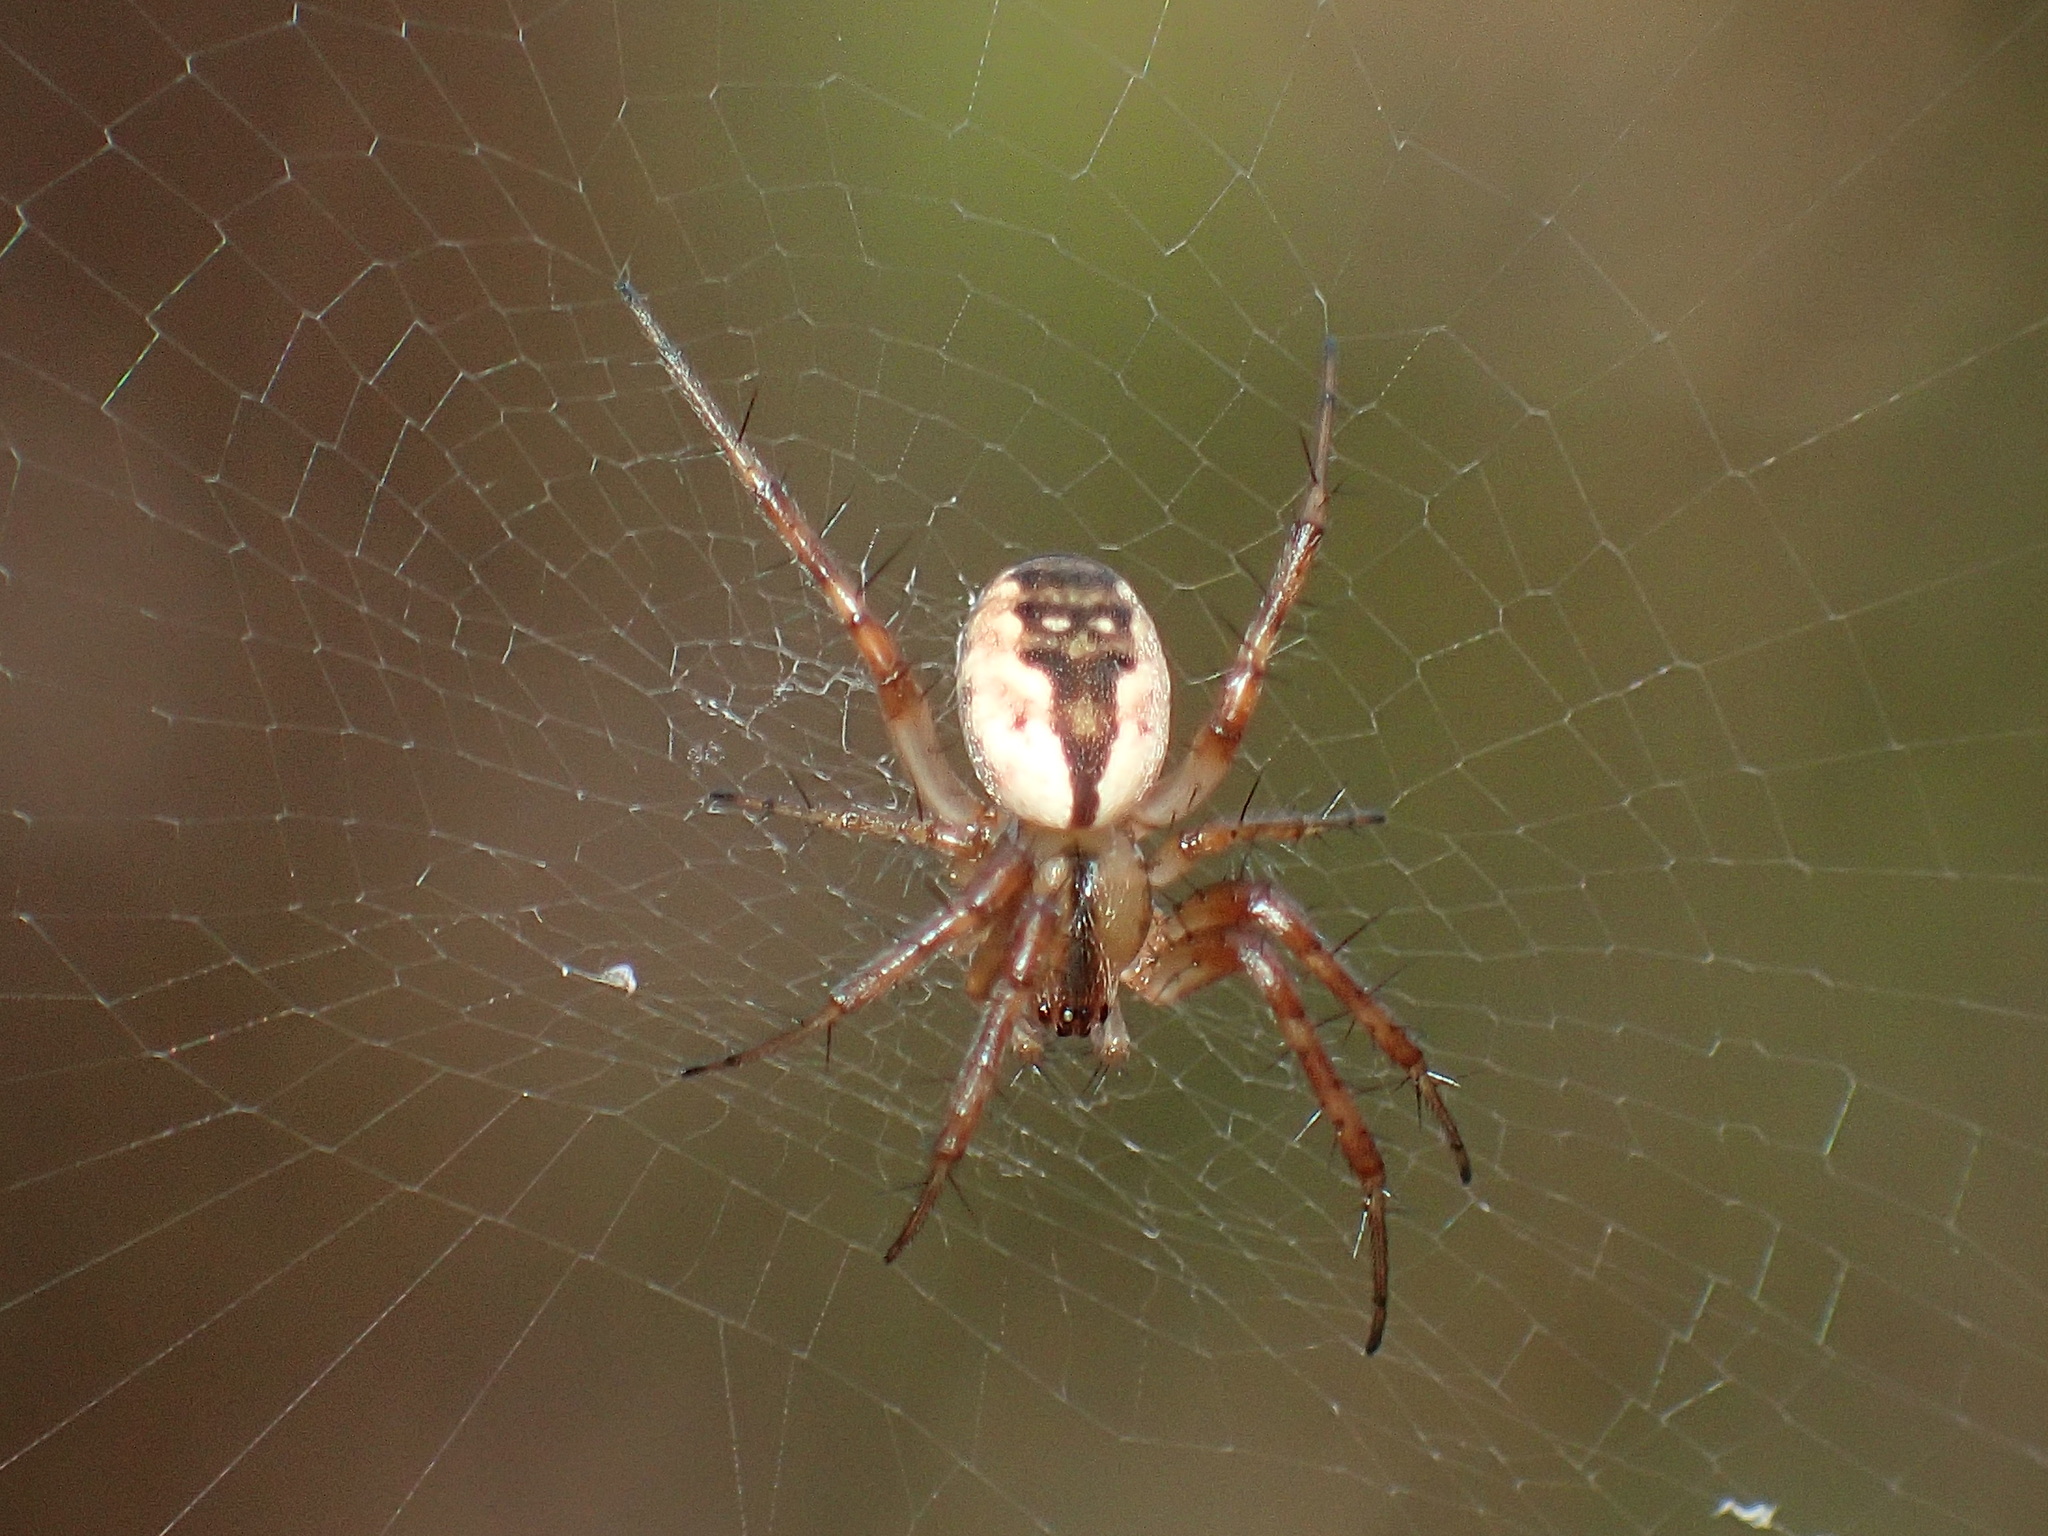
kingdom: Animalia
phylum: Arthropoda
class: Arachnida
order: Araneae
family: Araneidae
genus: Mangora
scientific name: Mangora placida
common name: Tuft-legged orbweaver
